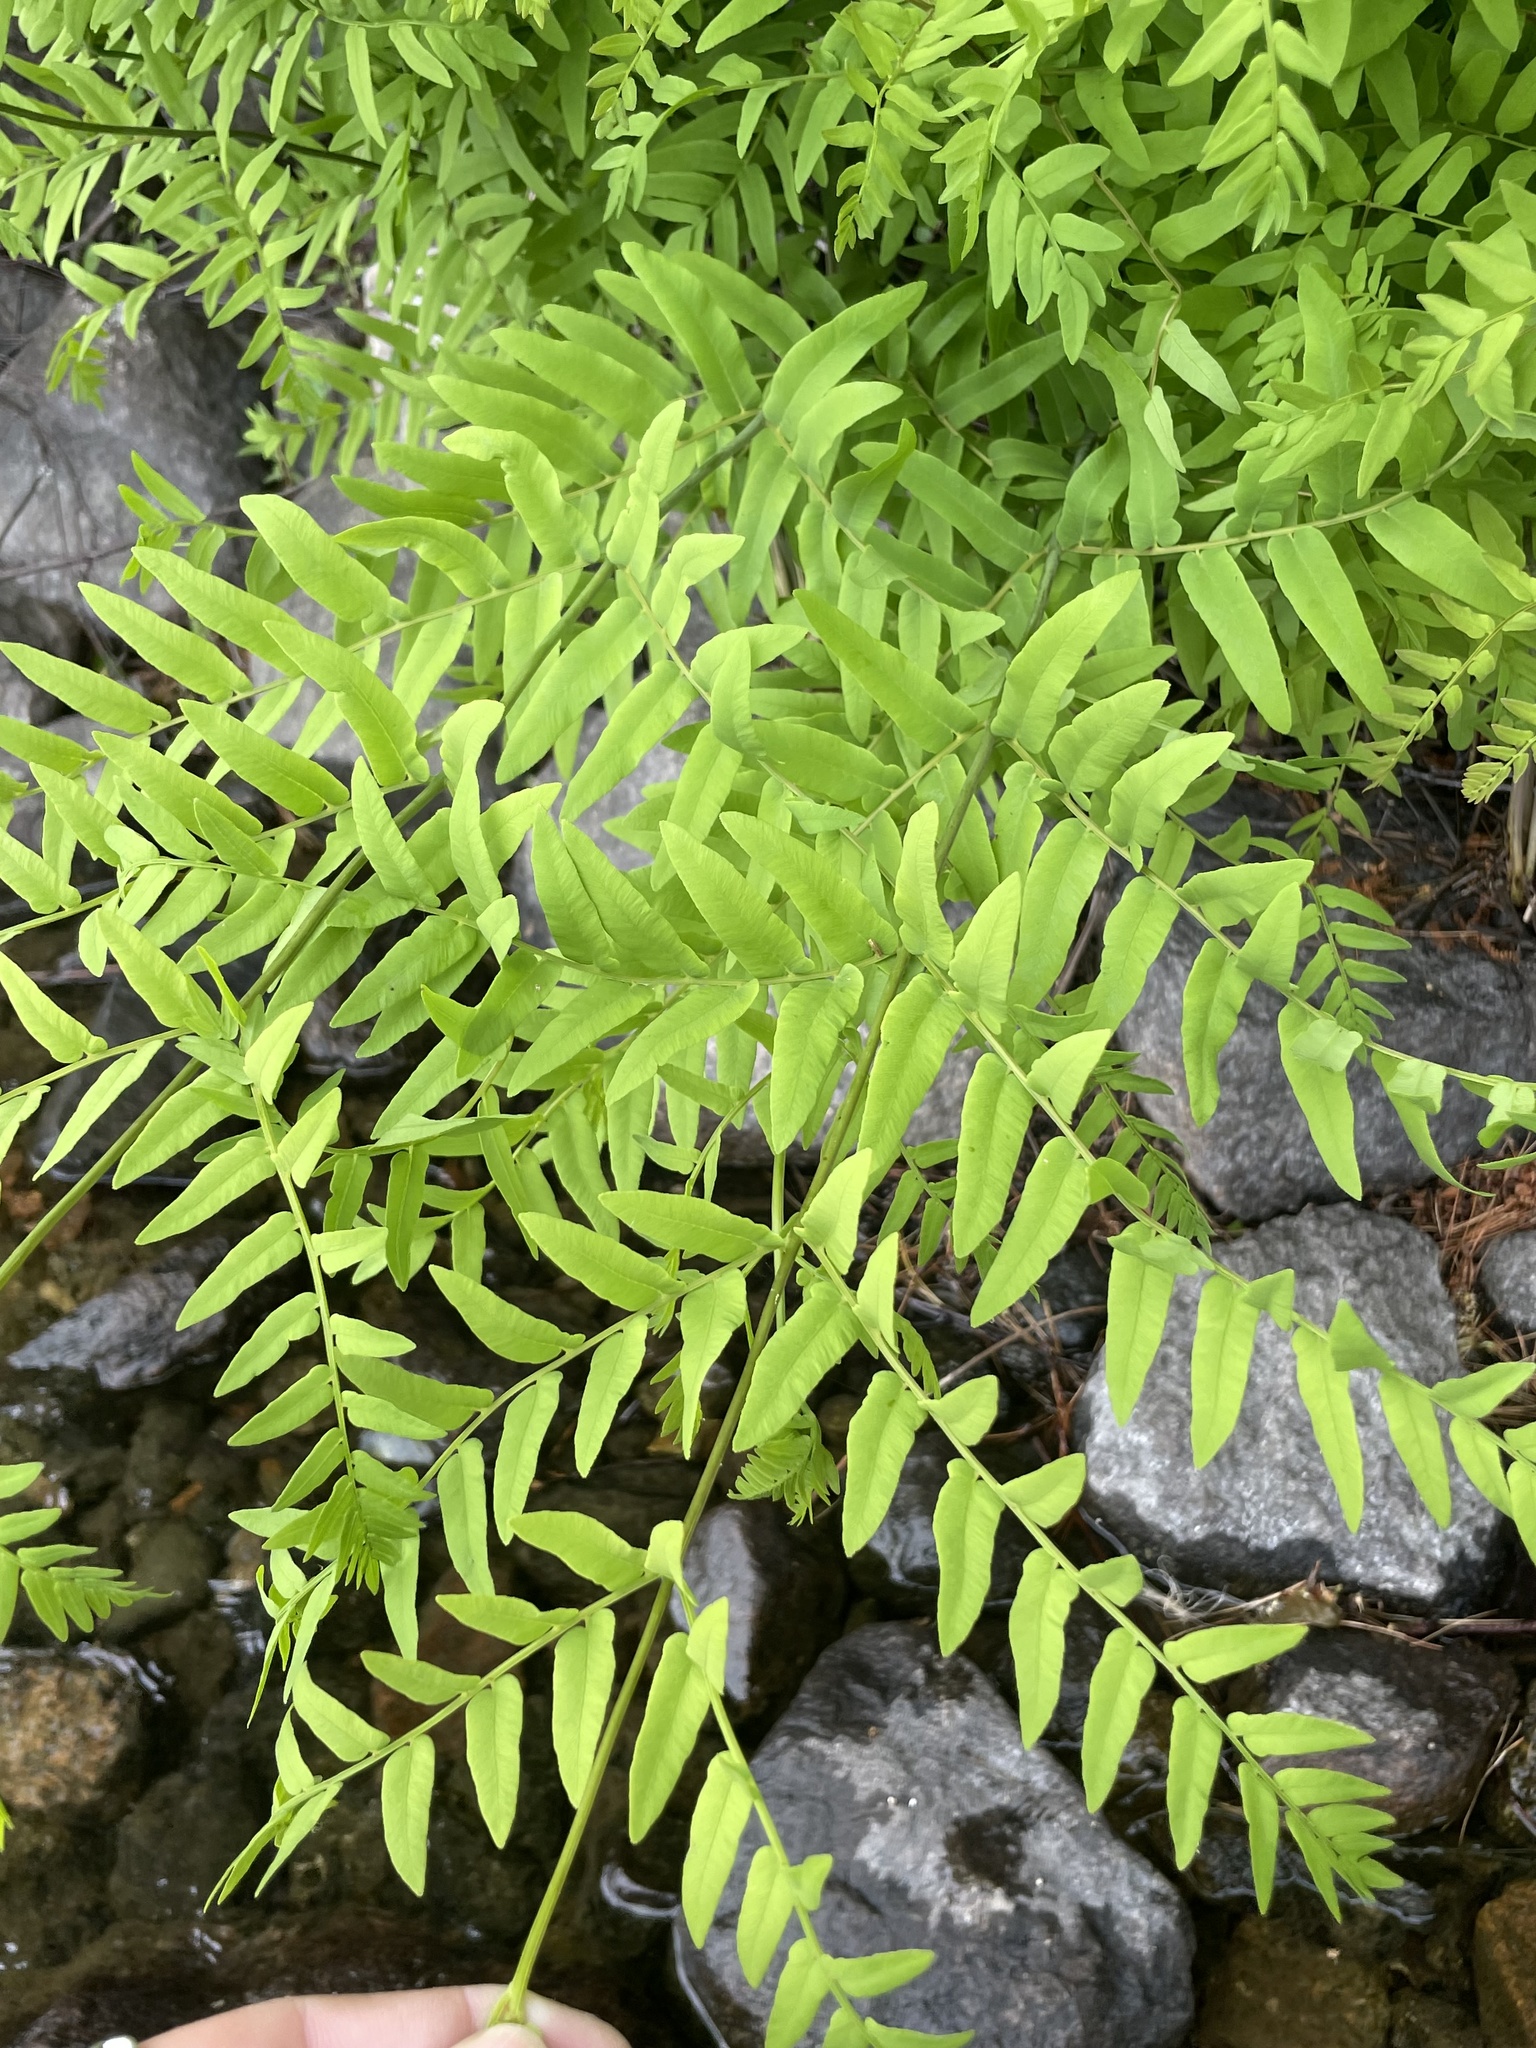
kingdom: Plantae
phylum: Tracheophyta
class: Polypodiopsida
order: Osmundales
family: Osmundaceae
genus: Osmunda
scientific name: Osmunda spectabilis
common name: American royal fern
